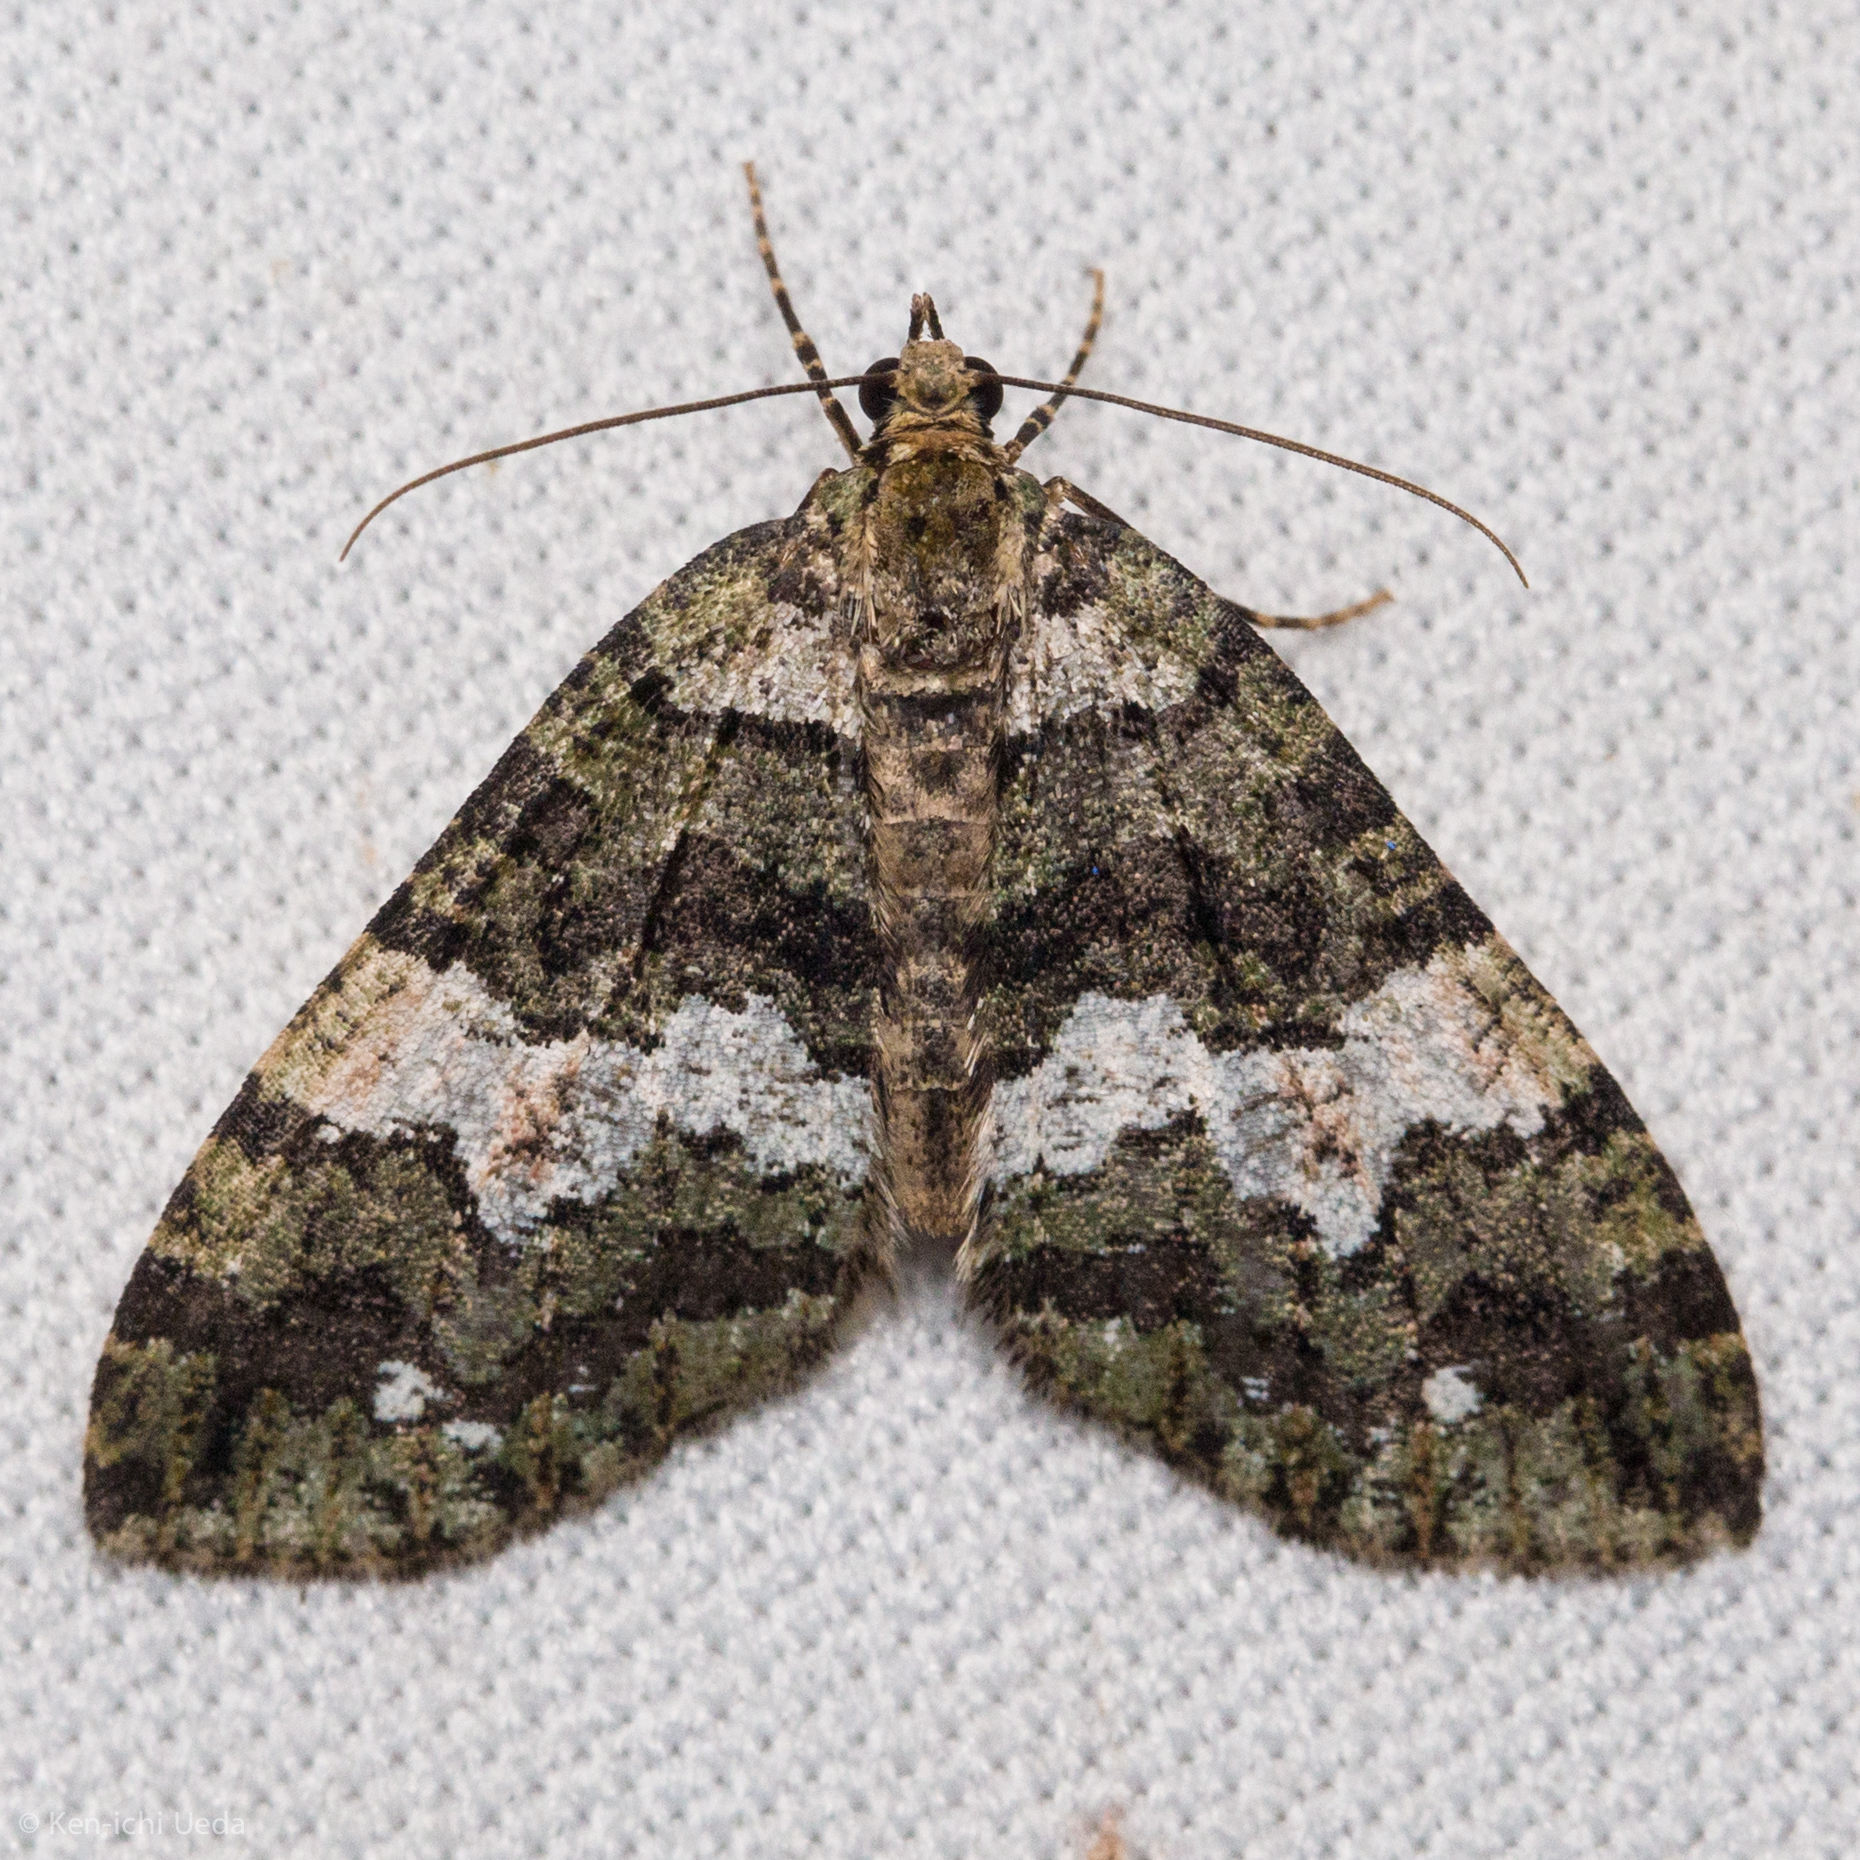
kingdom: Animalia
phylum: Arthropoda
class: Insecta
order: Lepidoptera
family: Geometridae
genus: Hydriomena
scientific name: Hydriomena albifasciata
